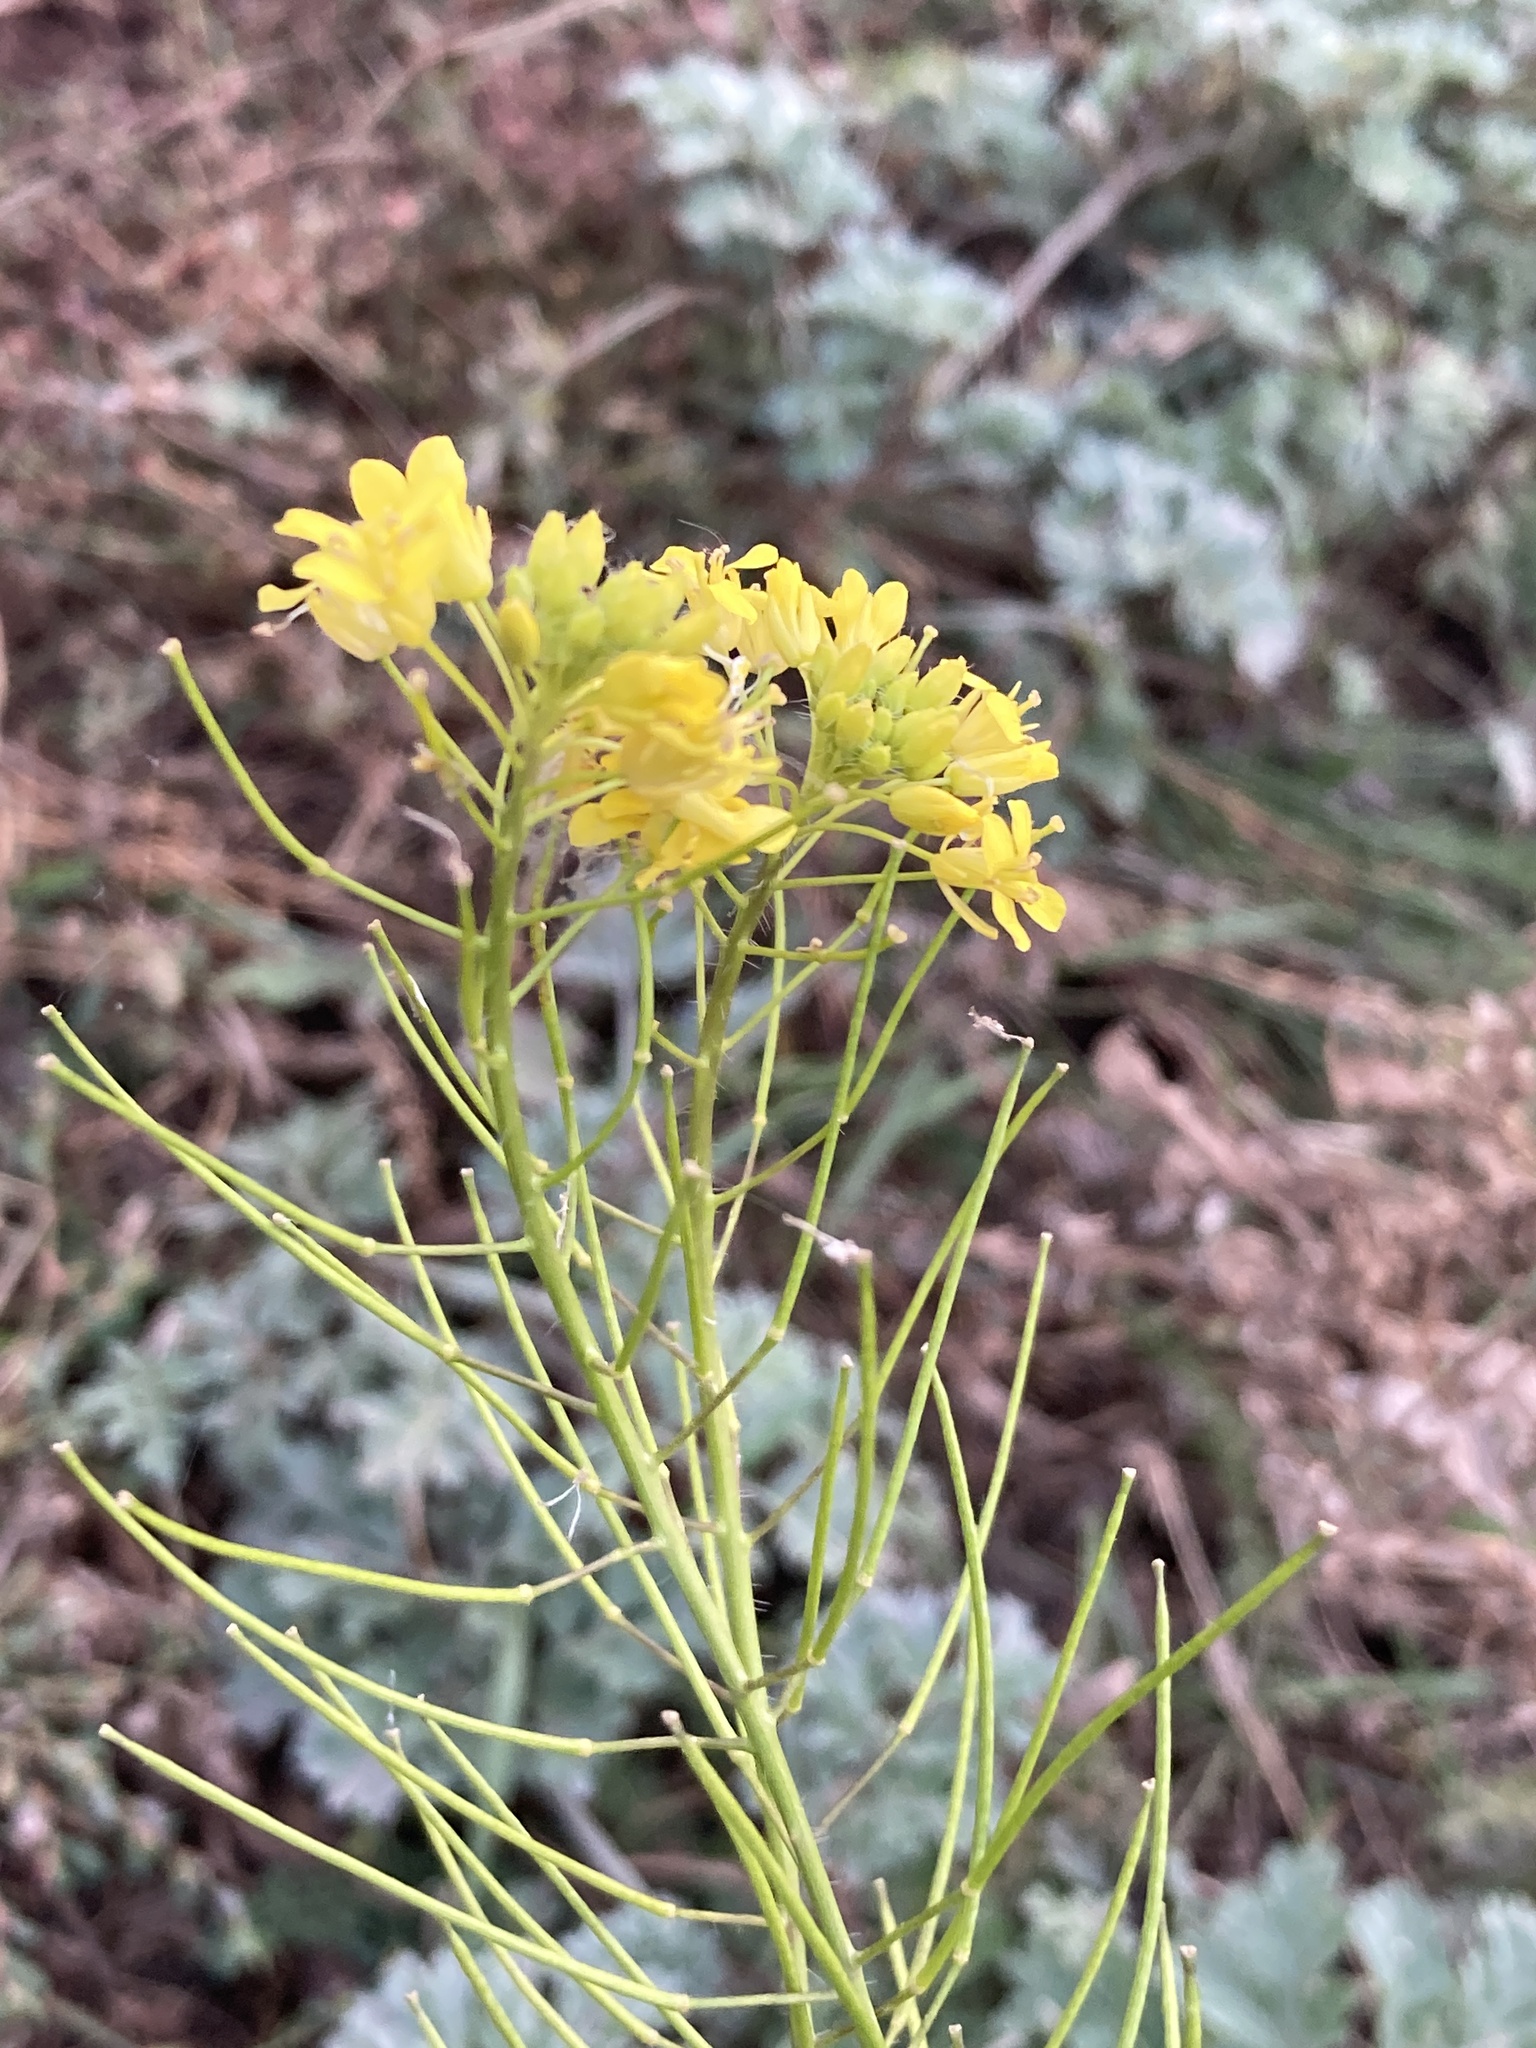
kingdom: Plantae
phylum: Tracheophyta
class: Magnoliopsida
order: Brassicales
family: Brassicaceae
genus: Sisymbrium
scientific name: Sisymbrium loeselii
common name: False london-rocket
